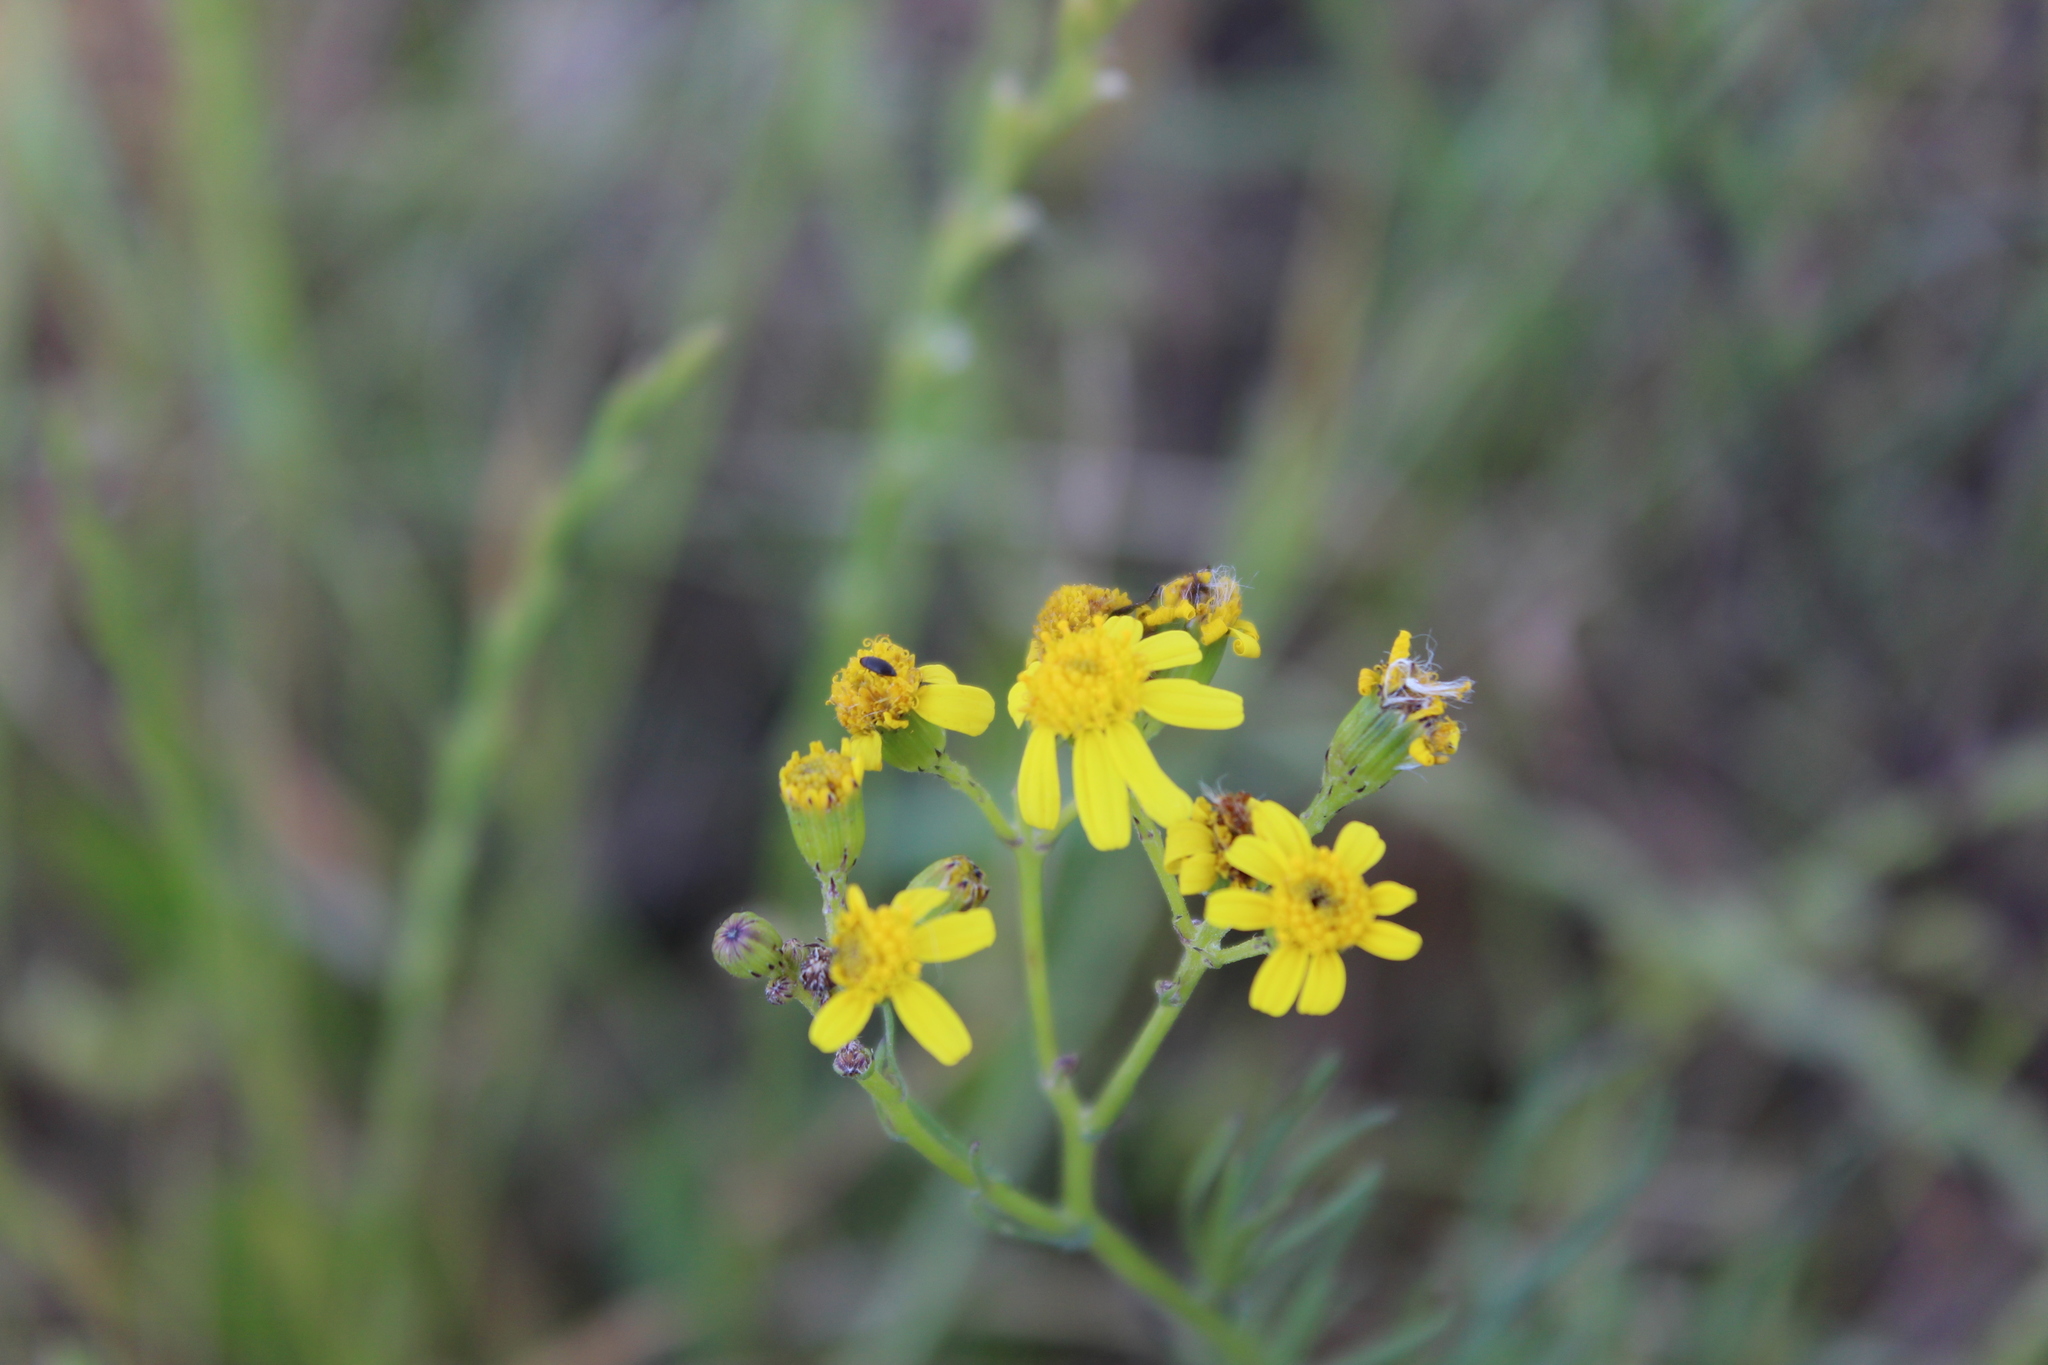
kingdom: Plantae
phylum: Tracheophyta
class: Magnoliopsida
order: Asterales
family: Asteraceae
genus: Senecio
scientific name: Senecio burchellii
